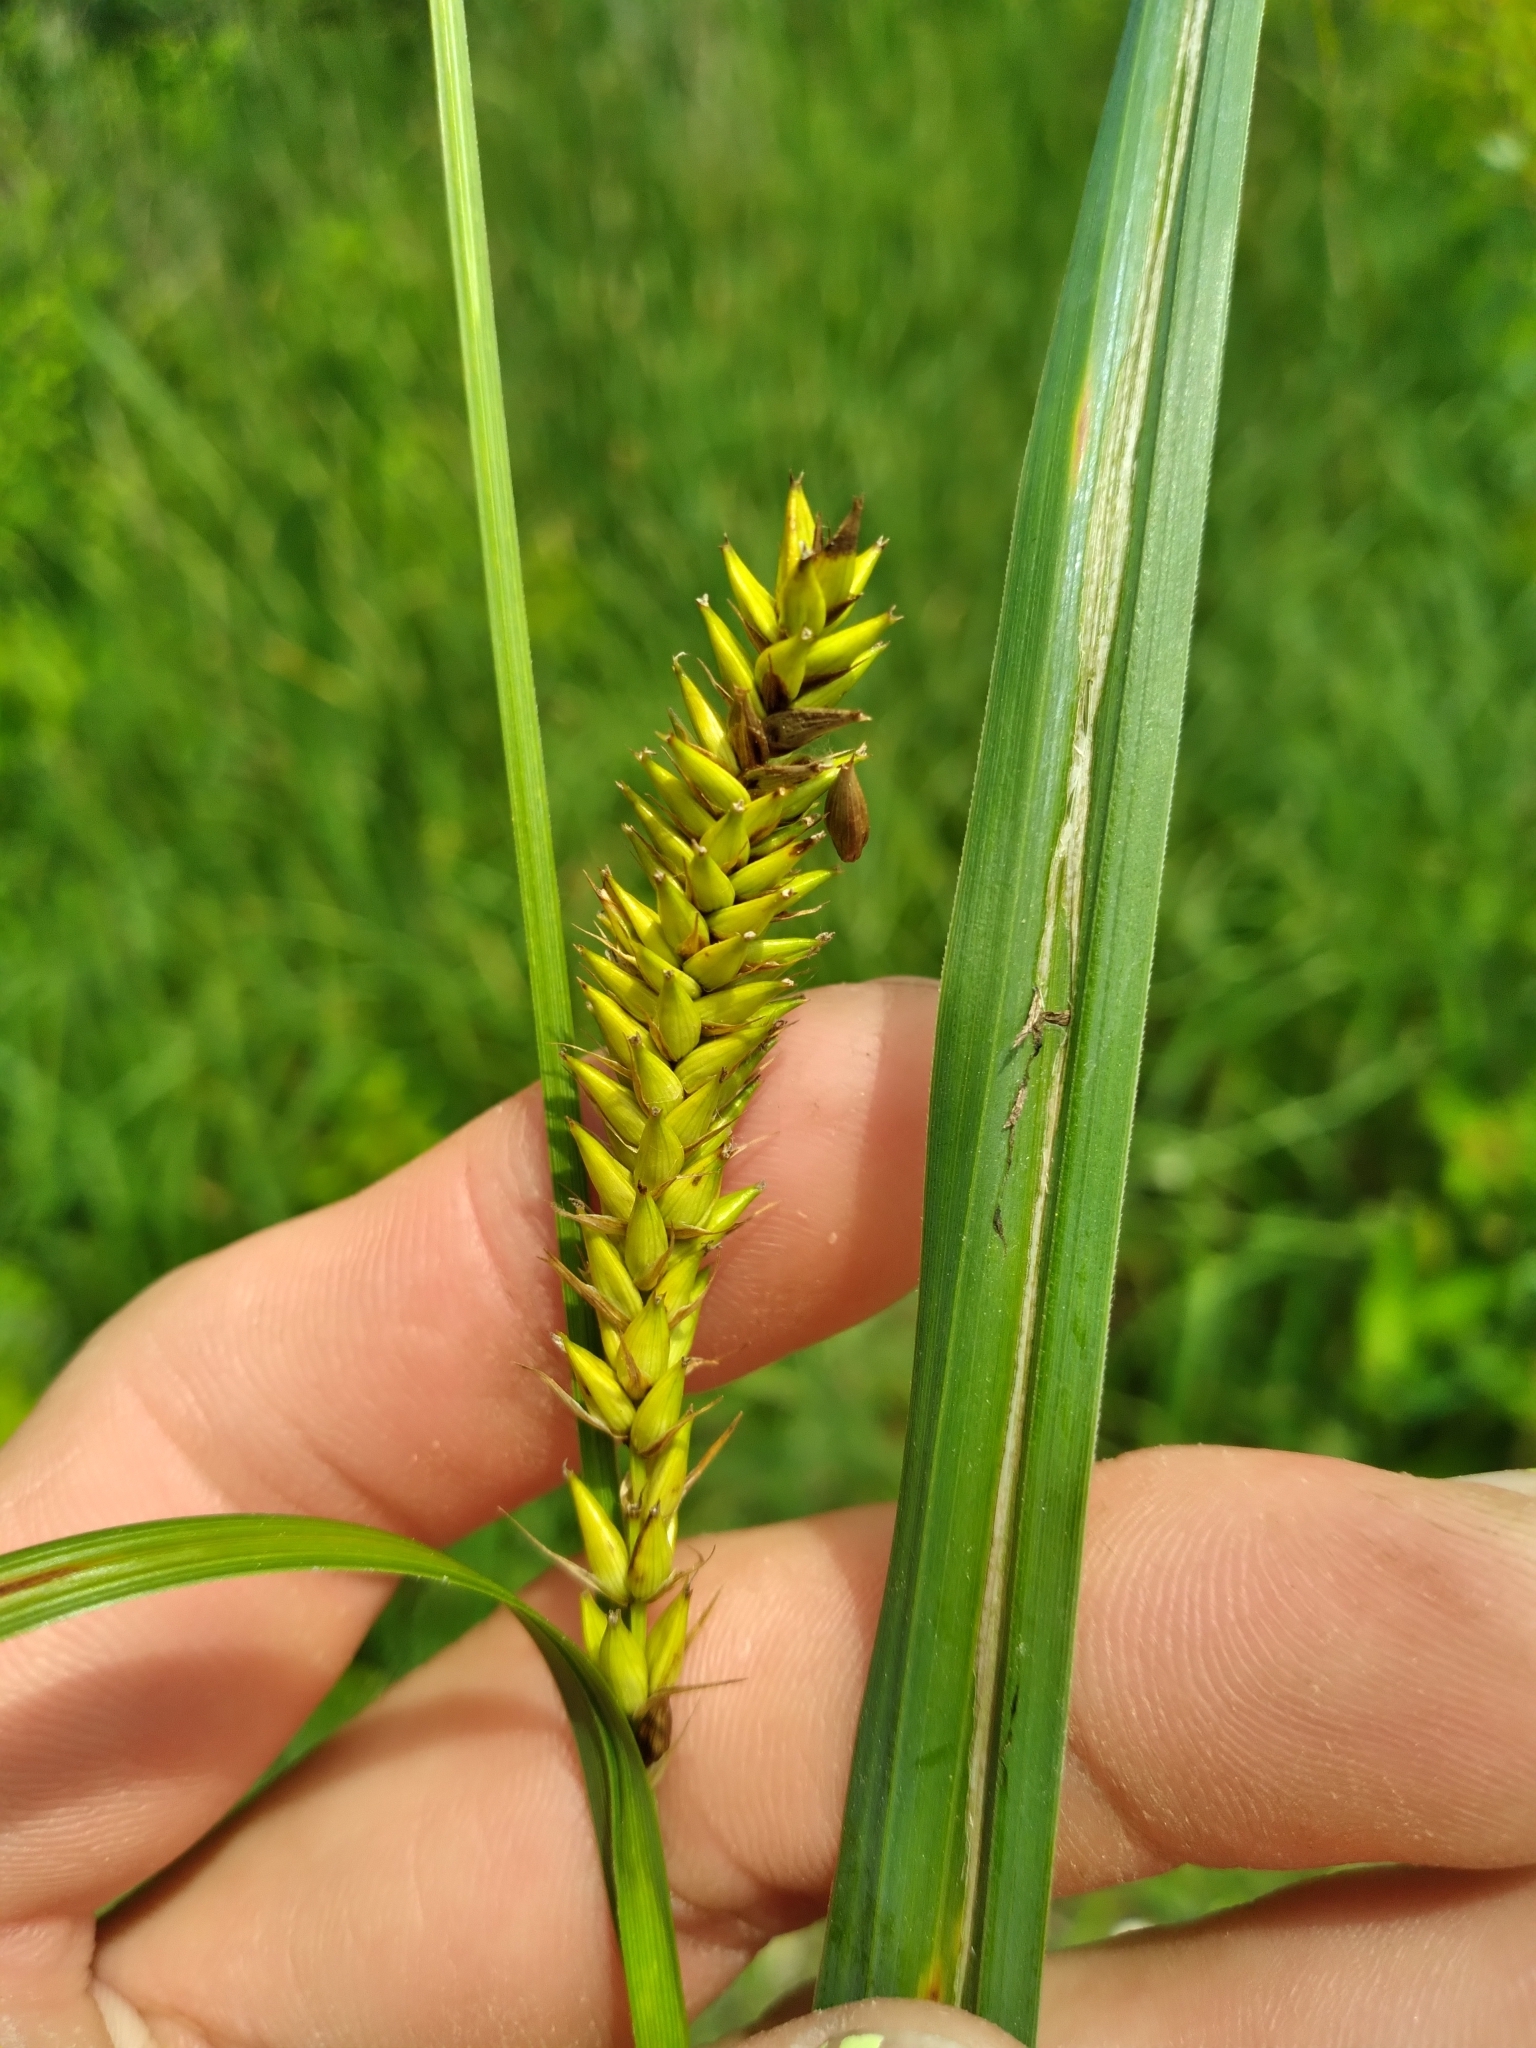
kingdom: Plantae
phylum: Tracheophyta
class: Liliopsida
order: Poales
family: Cyperaceae
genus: Carex
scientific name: Carex lacustris
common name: Common lake sedge
